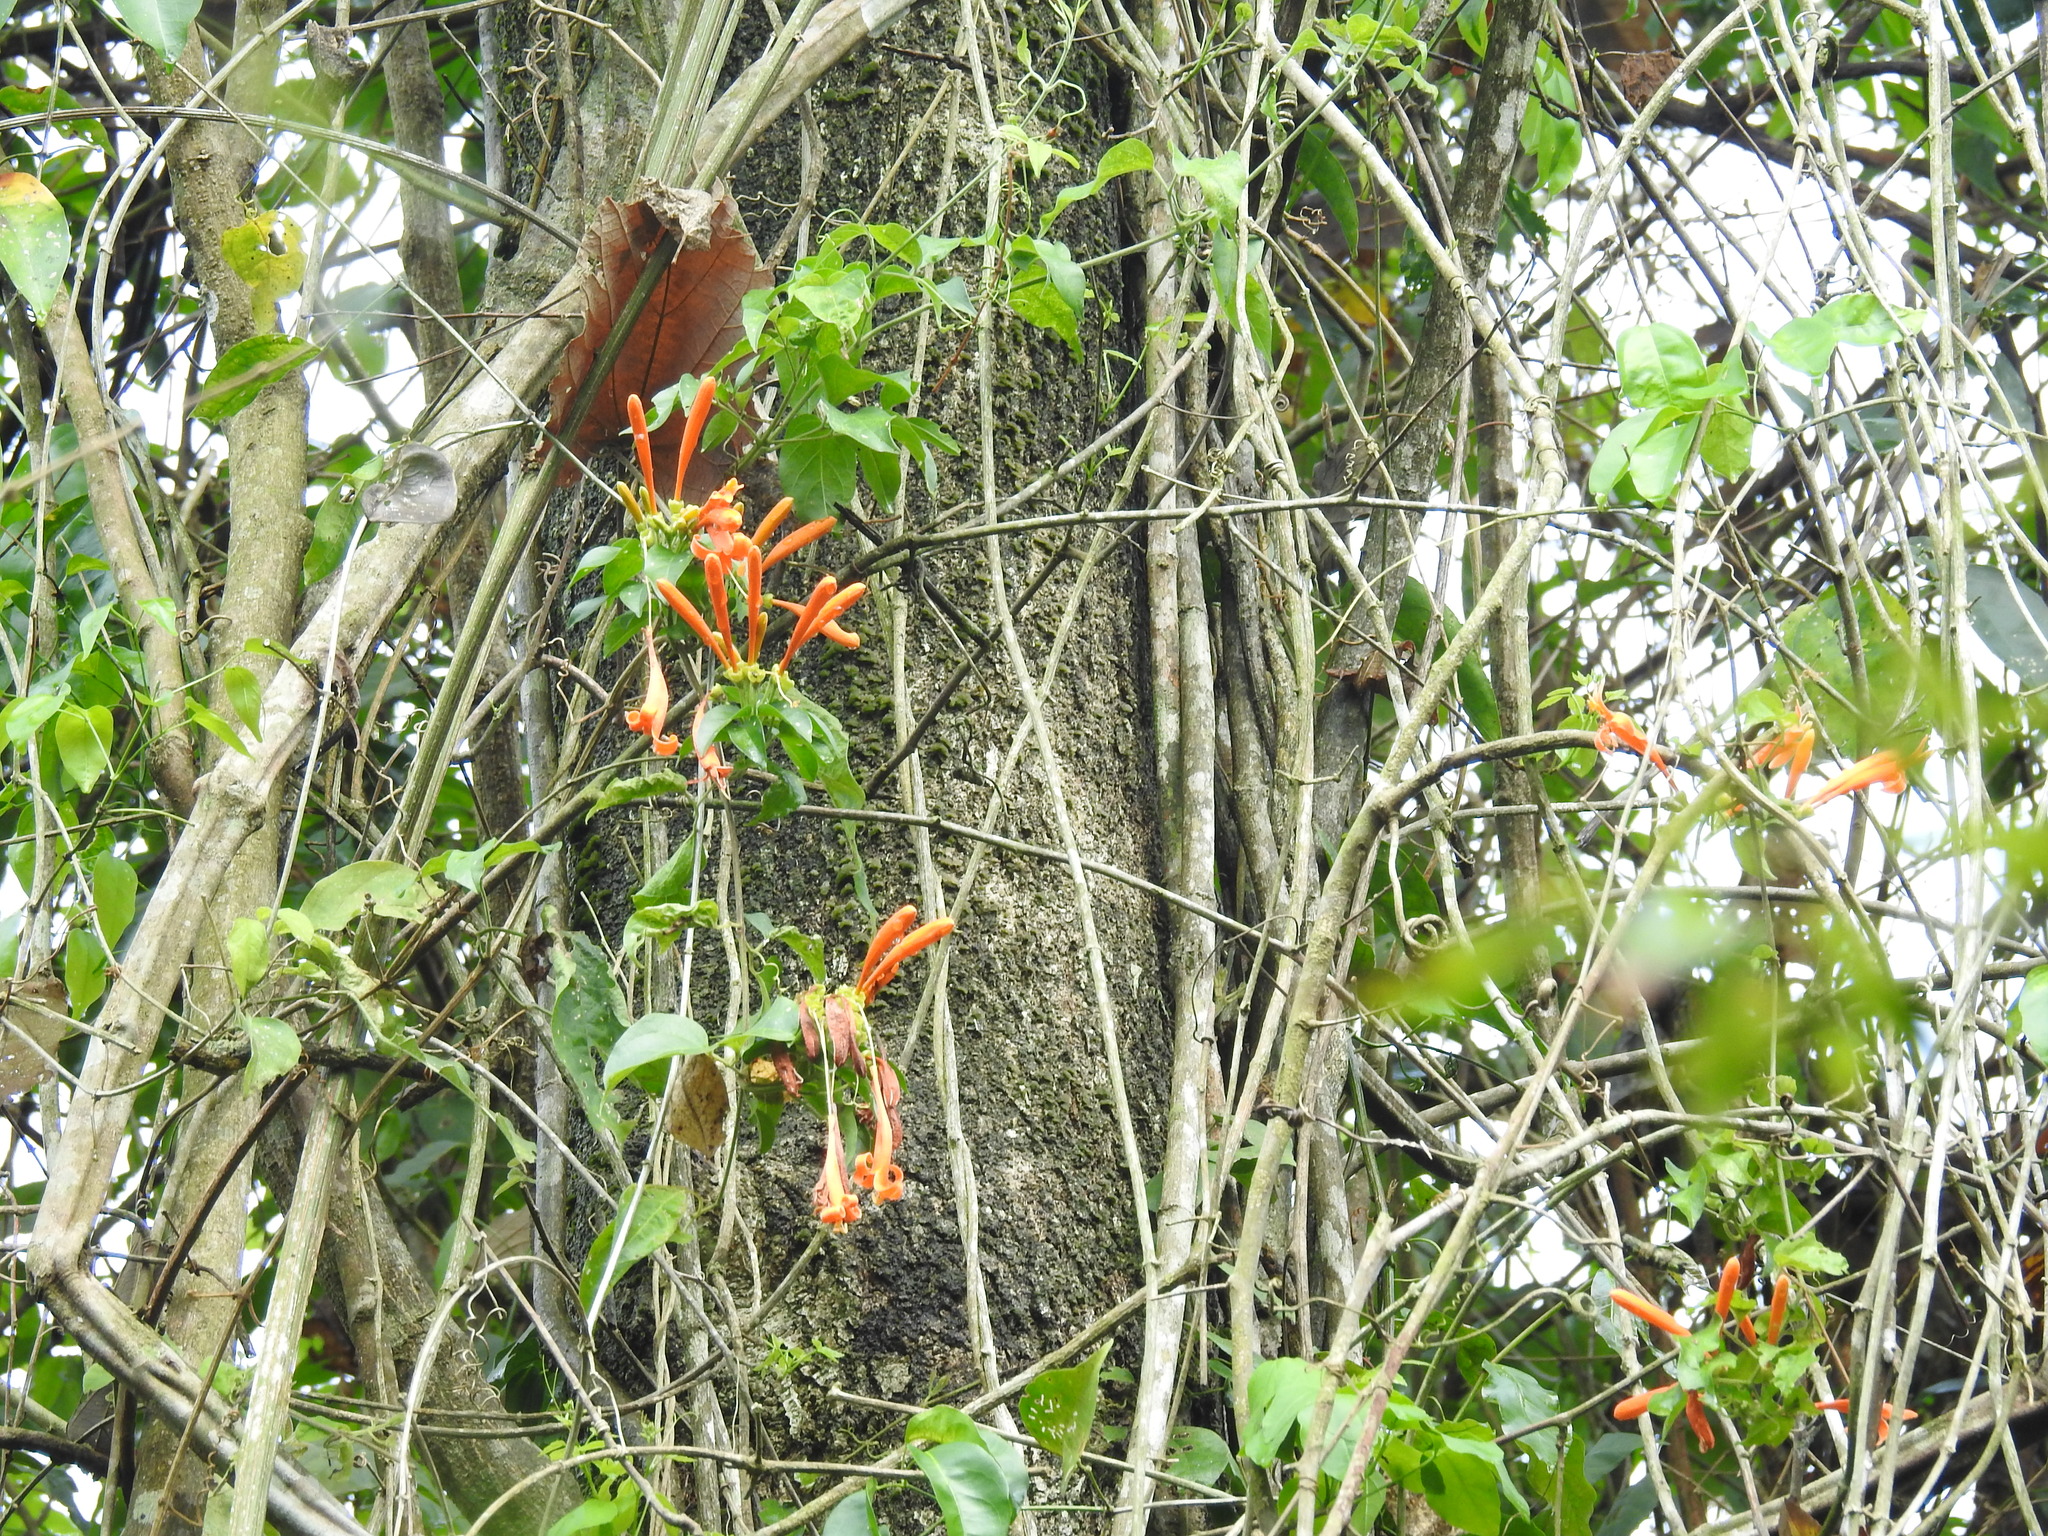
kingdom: Plantae
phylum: Tracheophyta
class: Magnoliopsida
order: Lamiales
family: Bignoniaceae
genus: Pyrostegia
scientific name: Pyrostegia venusta
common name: Flamevine
